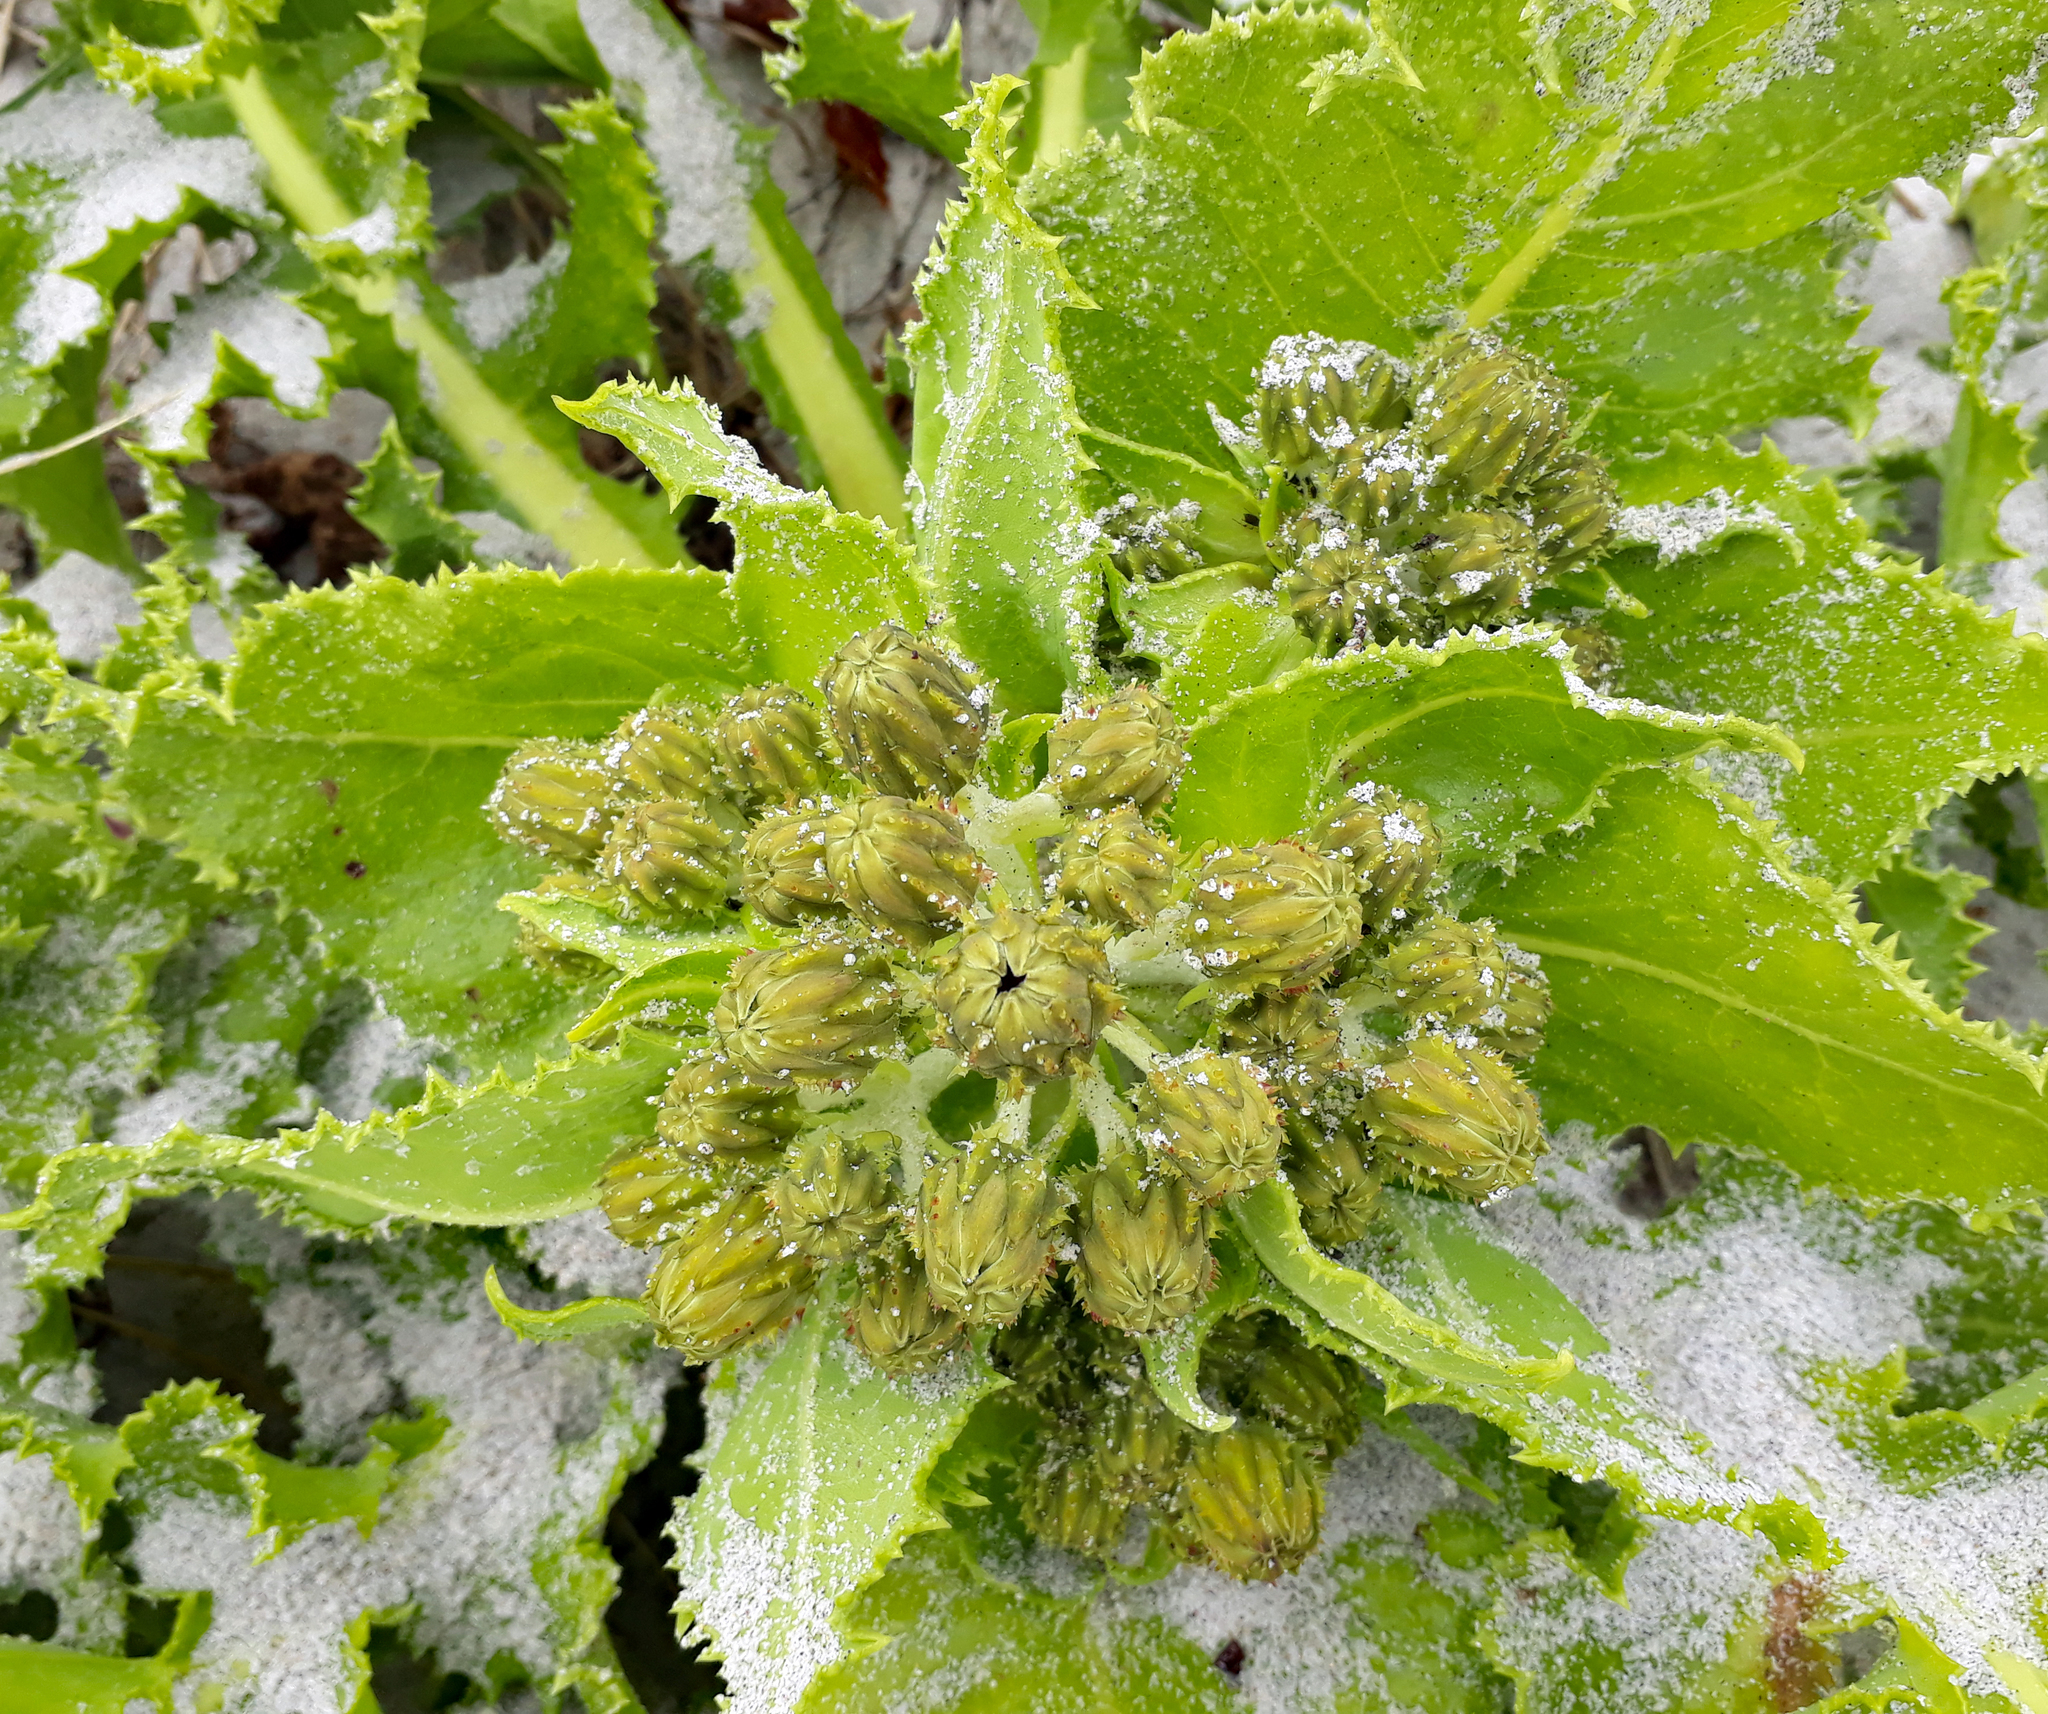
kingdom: Plantae
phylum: Tracheophyta
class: Magnoliopsida
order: Asterales
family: Asteraceae
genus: Sonchus
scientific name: Sonchus grandifolius
